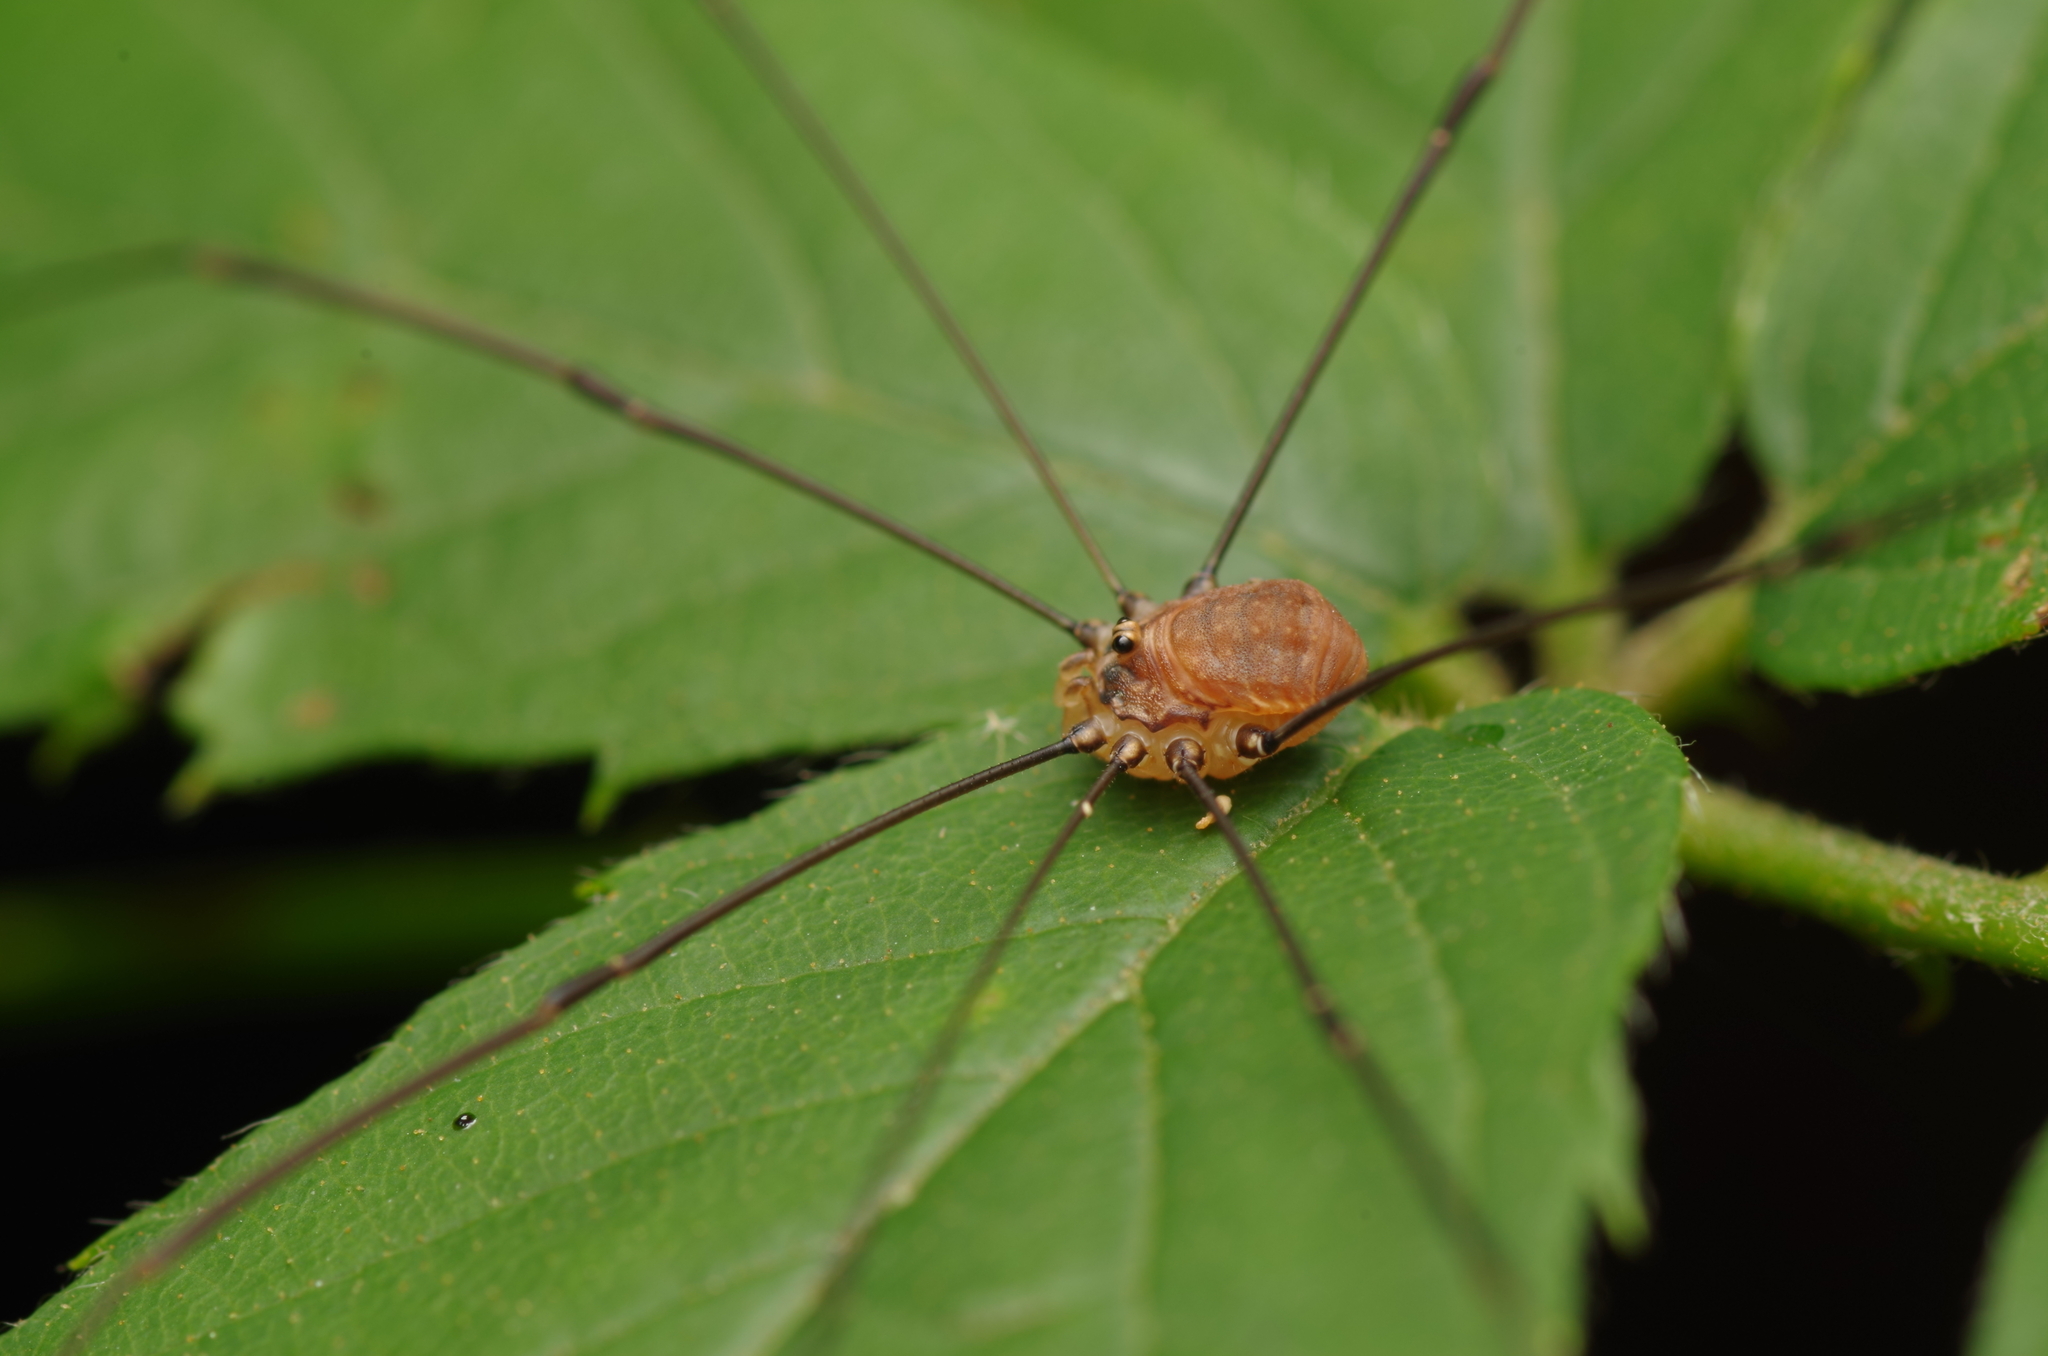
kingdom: Animalia
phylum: Arthropoda
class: Arachnida
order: Opiliones
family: Sclerosomatidae
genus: Leiobunum
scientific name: Leiobunum blackwalli
